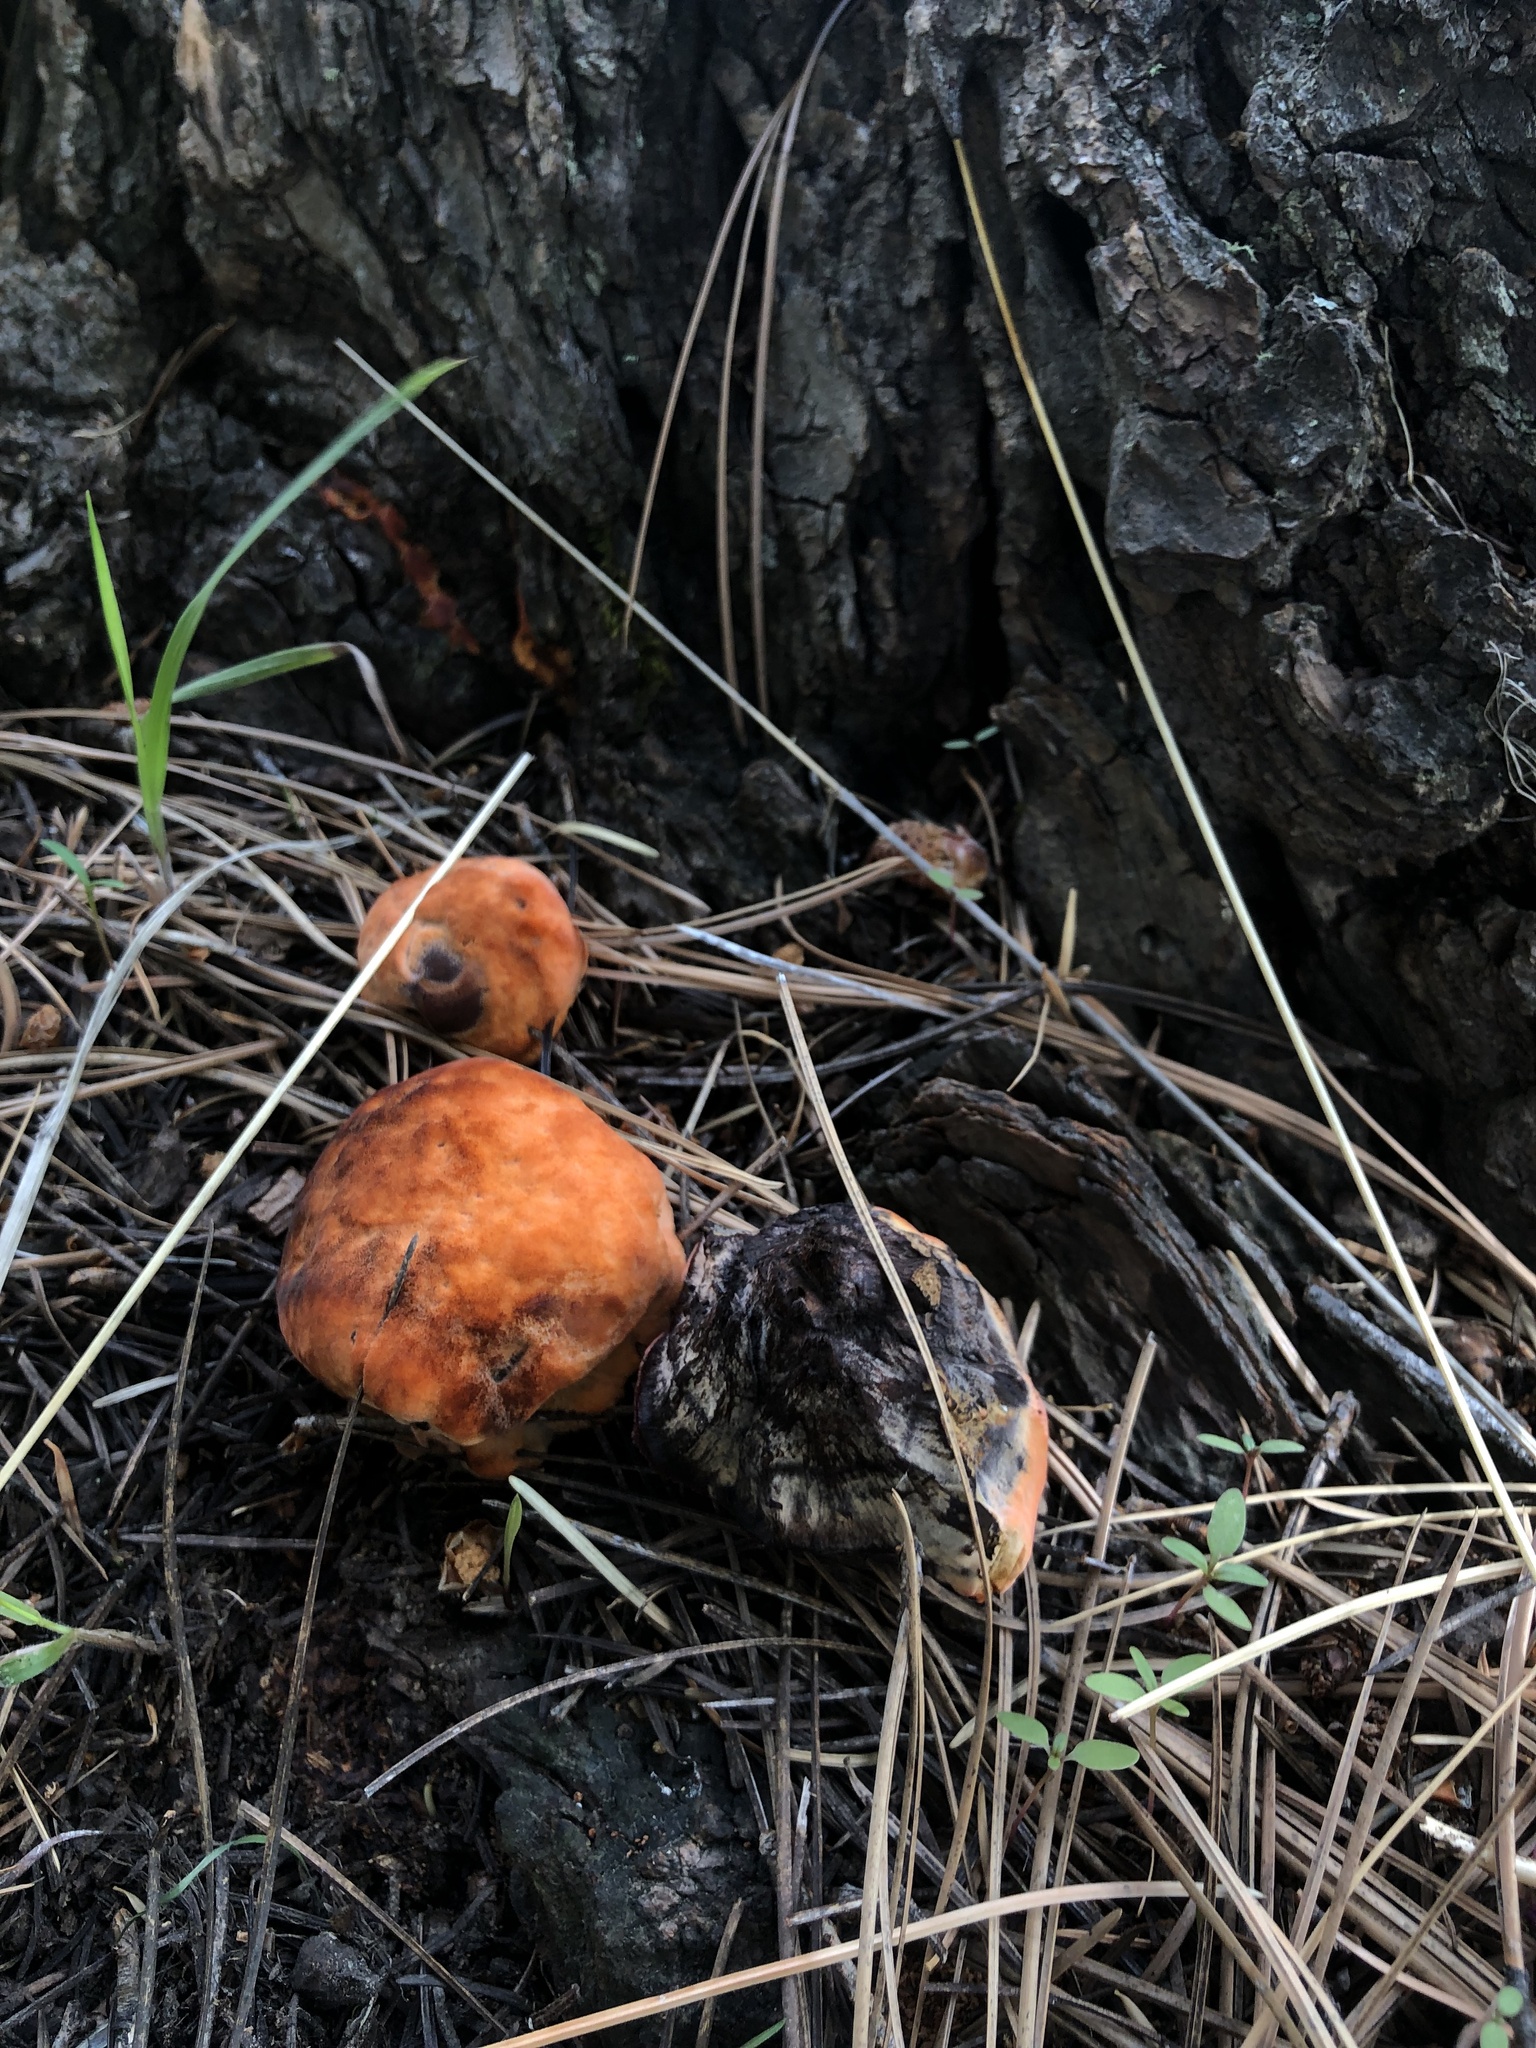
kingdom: Fungi
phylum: Basidiomycota
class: Agaricomycetes
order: Polyporales
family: Laetiporaceae
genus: Phaeolus
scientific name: Phaeolus schweinitzii
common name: Dyer's mazegill
